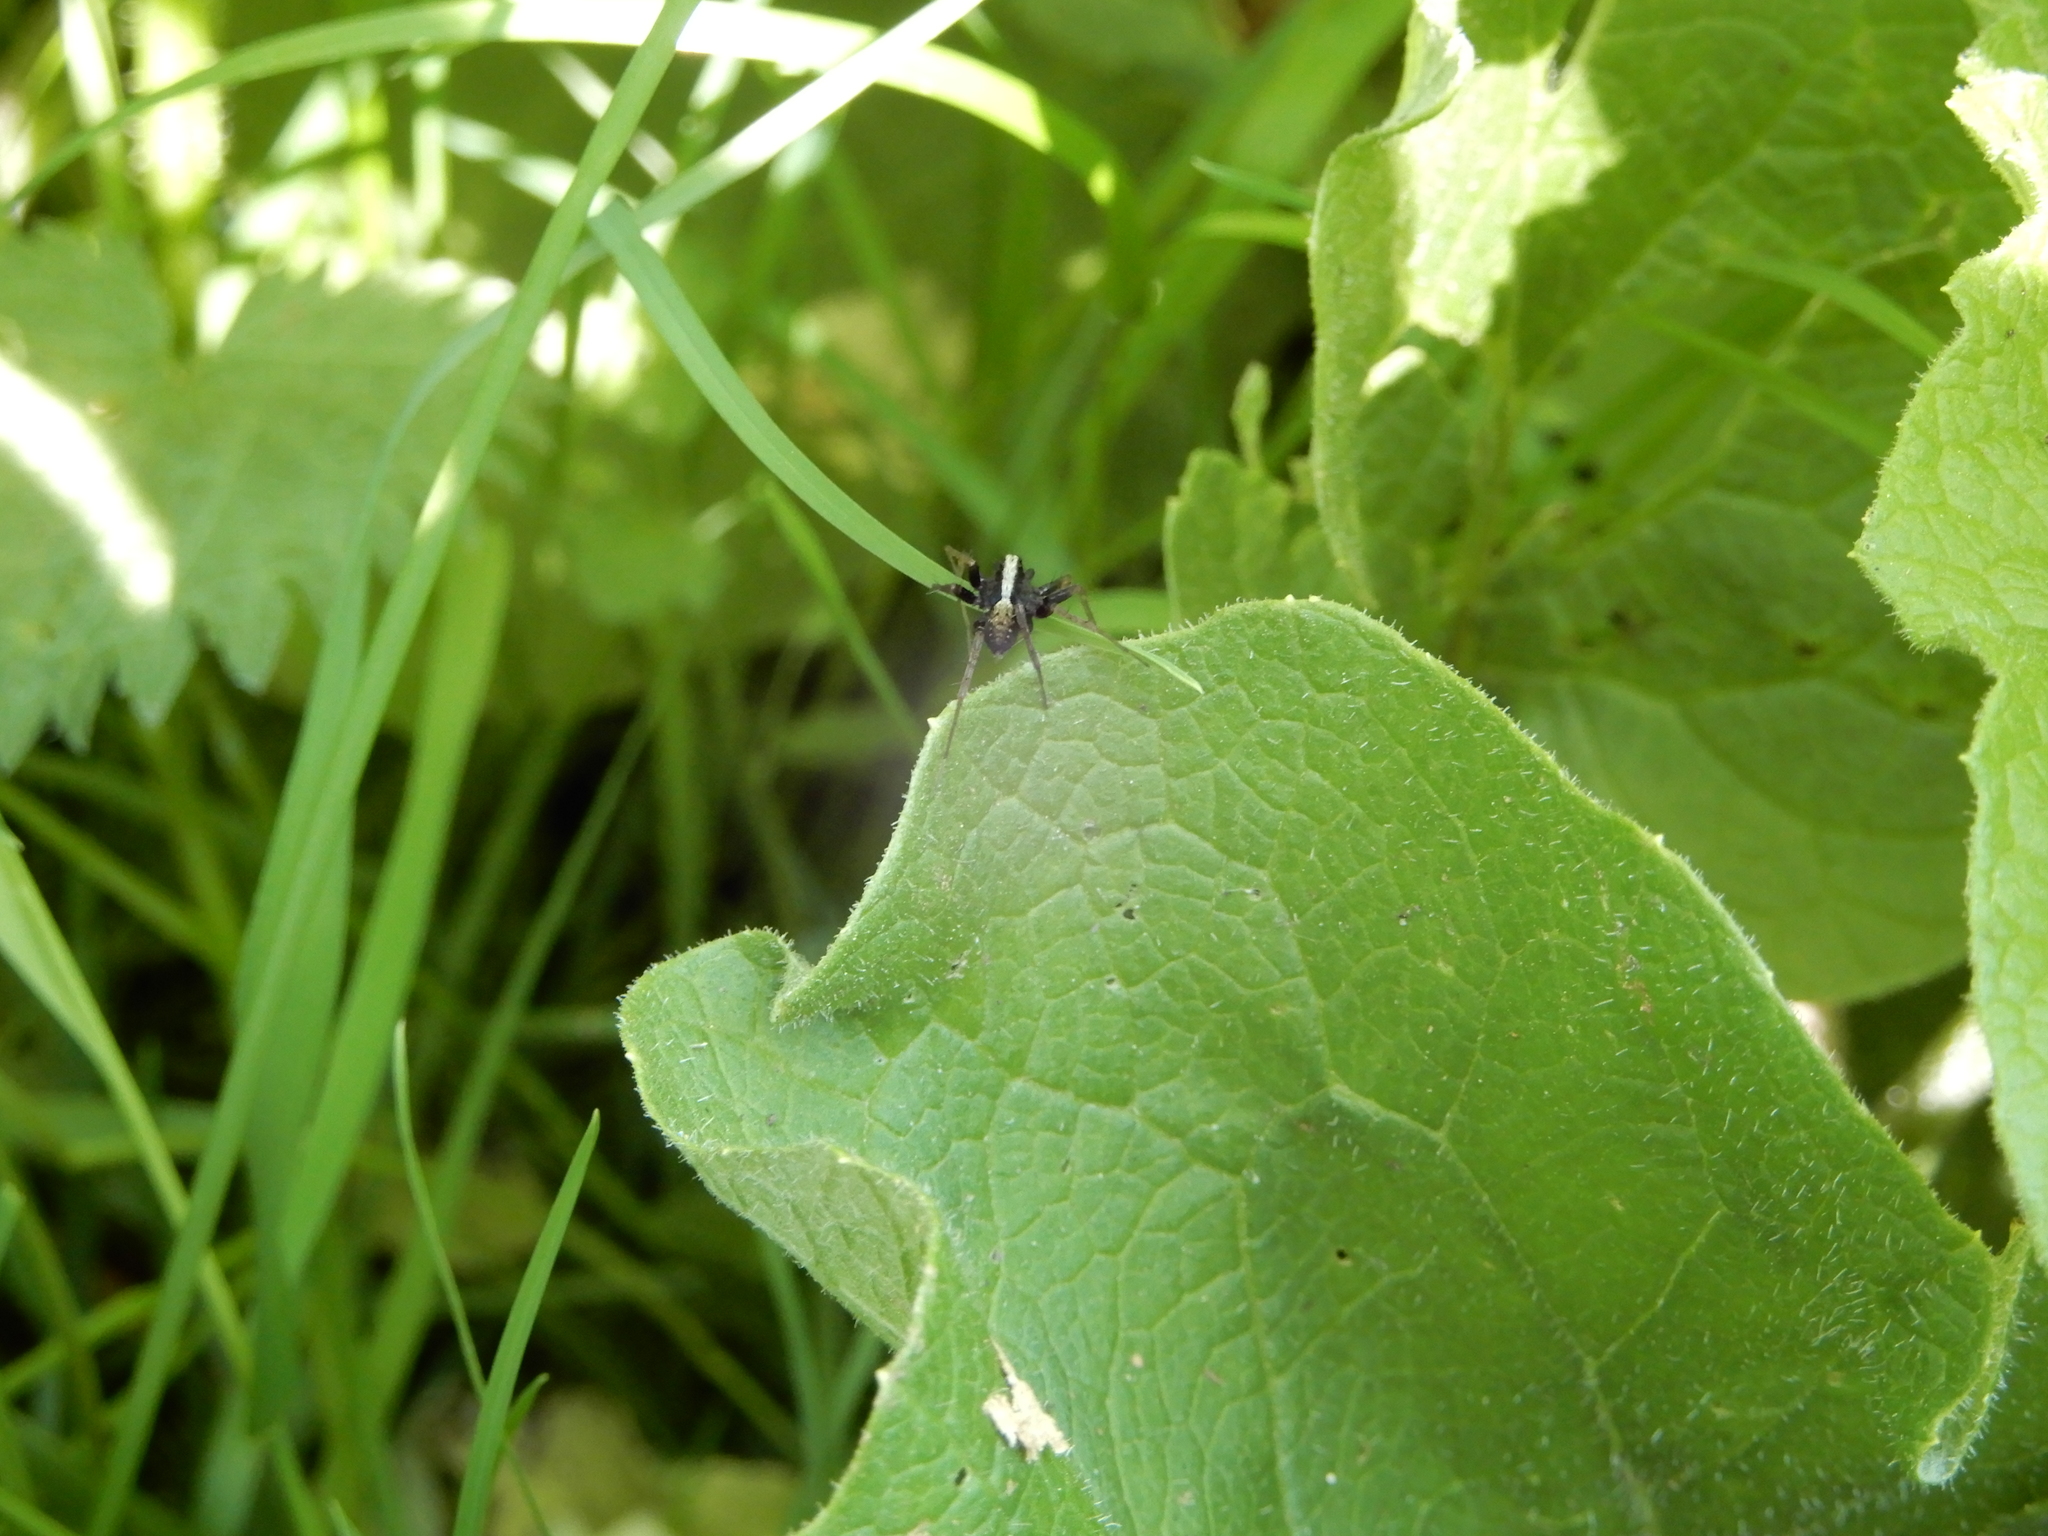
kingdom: Animalia
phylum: Arthropoda
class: Arachnida
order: Araneae
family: Lycosidae
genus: Pardosa
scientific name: Pardosa
